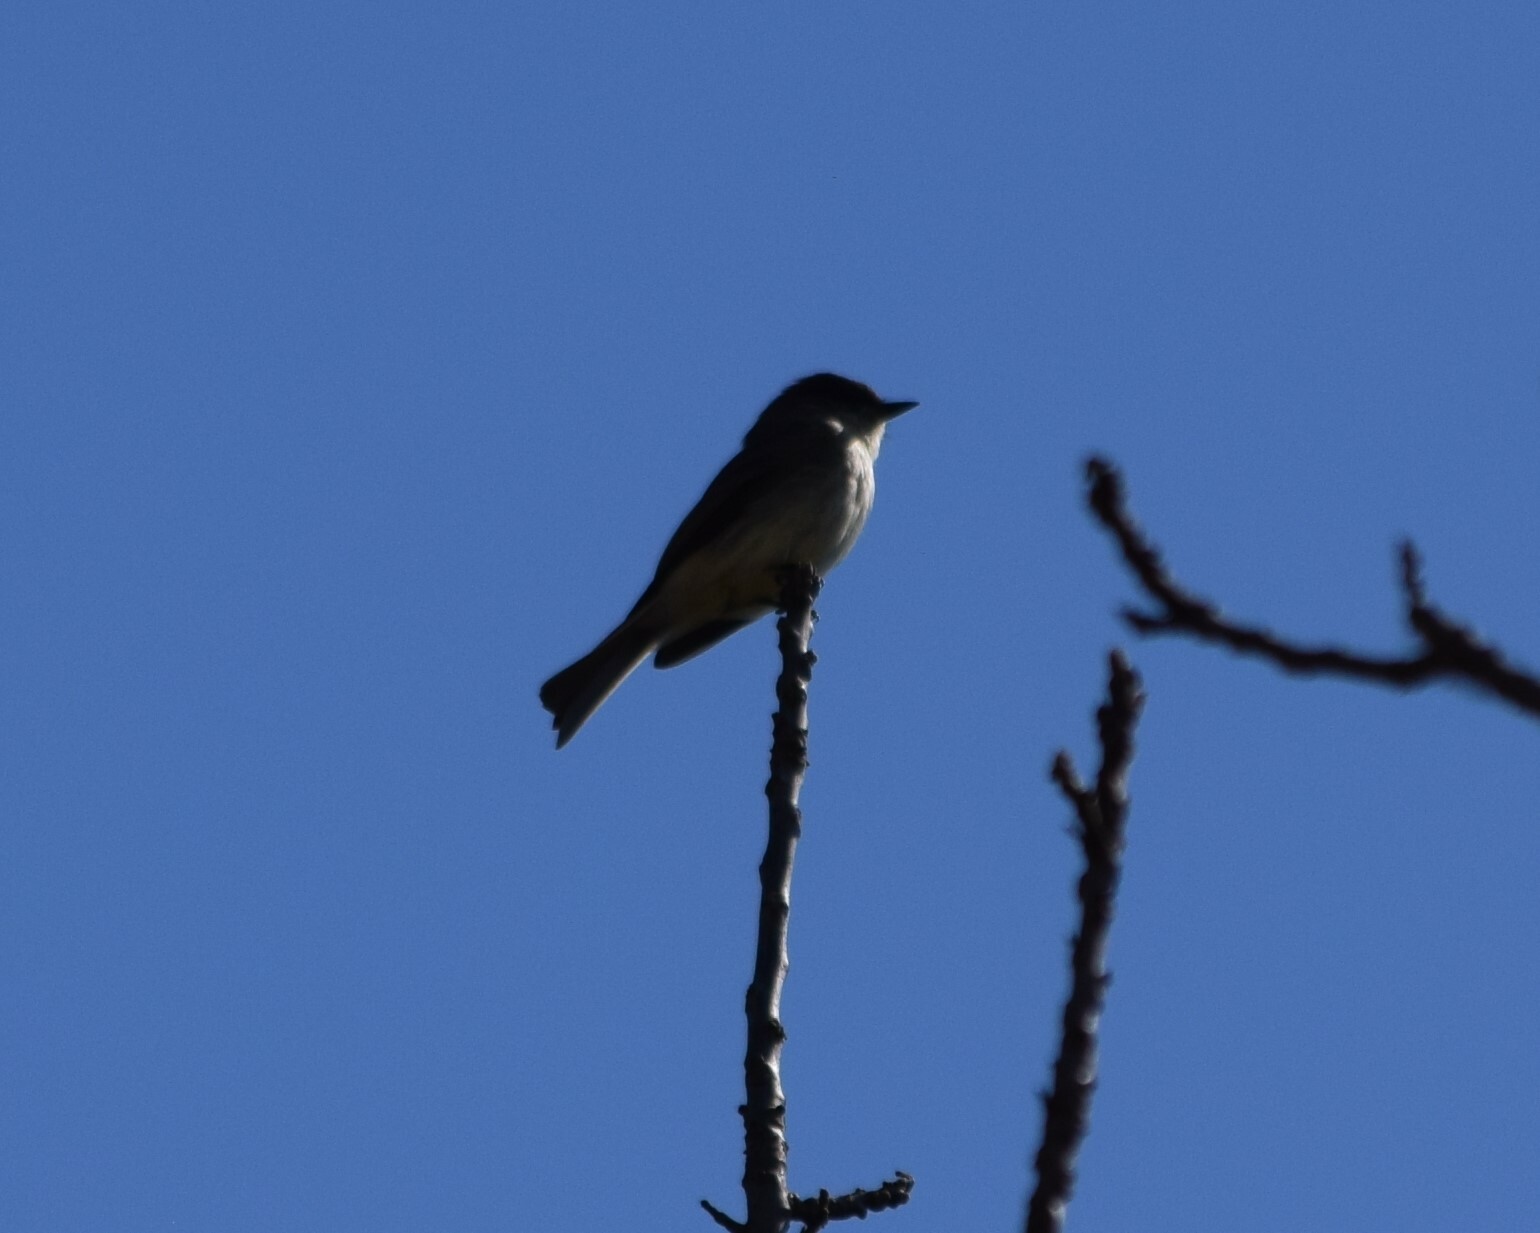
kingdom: Animalia
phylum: Chordata
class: Aves
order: Passeriformes
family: Tyrannidae
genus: Sayornis
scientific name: Sayornis phoebe
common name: Eastern phoebe
